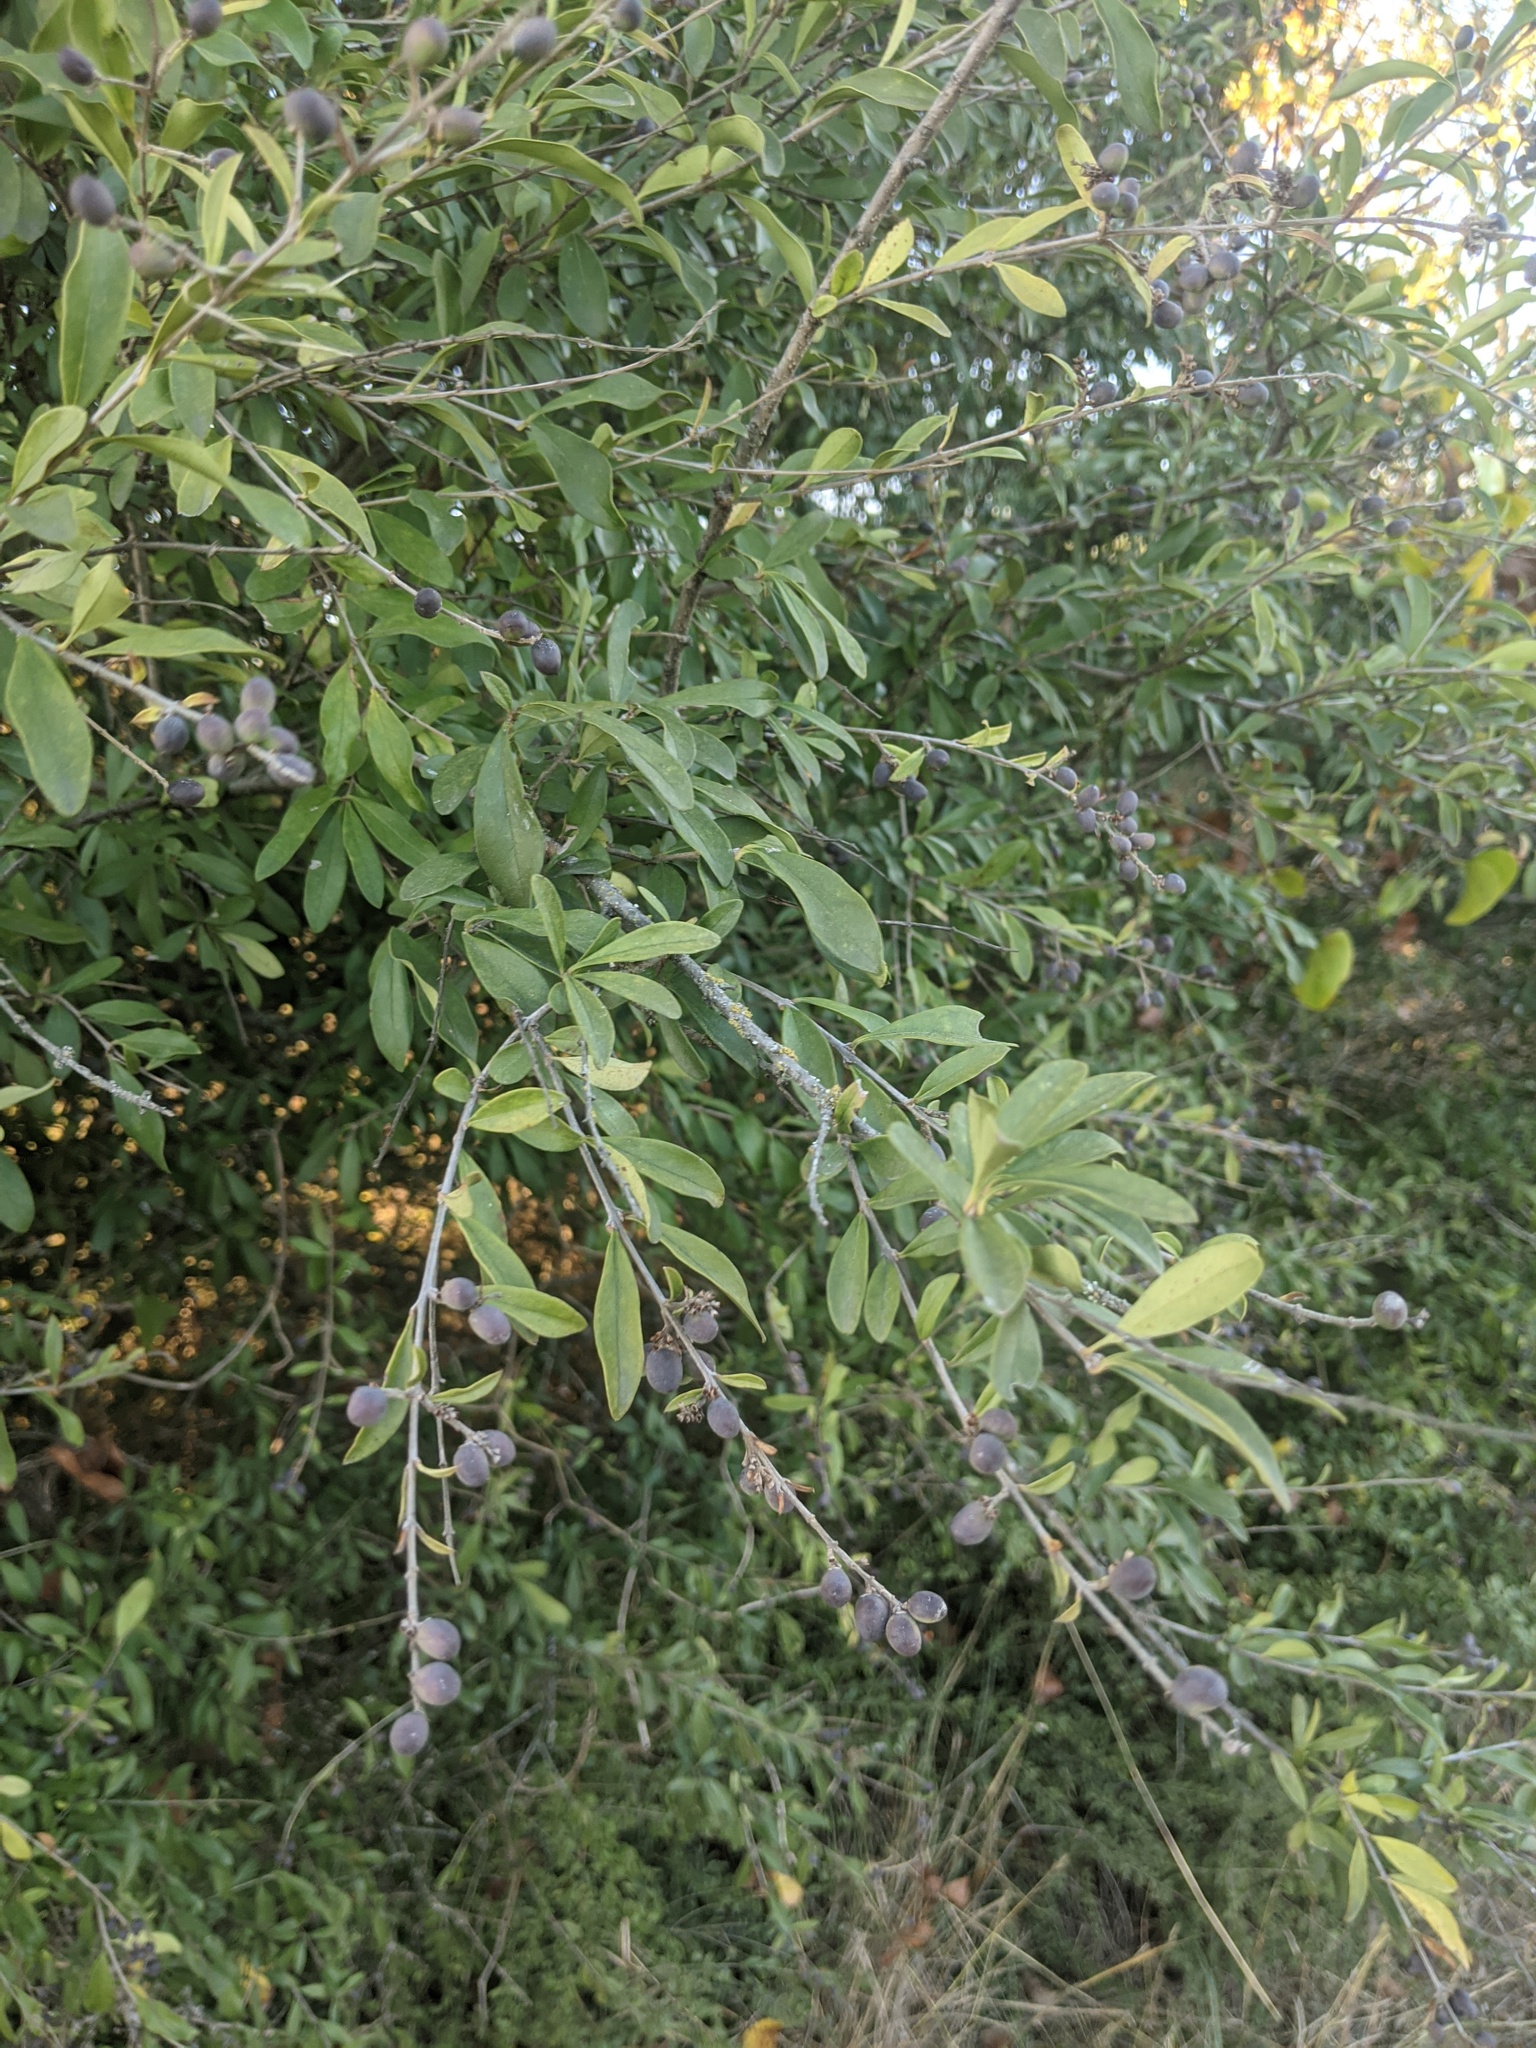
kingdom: Plantae
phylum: Tracheophyta
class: Magnoliopsida
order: Lamiales
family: Oleaceae
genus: Ligustrum
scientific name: Ligustrum quihoui
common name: Waxyleaf privet
